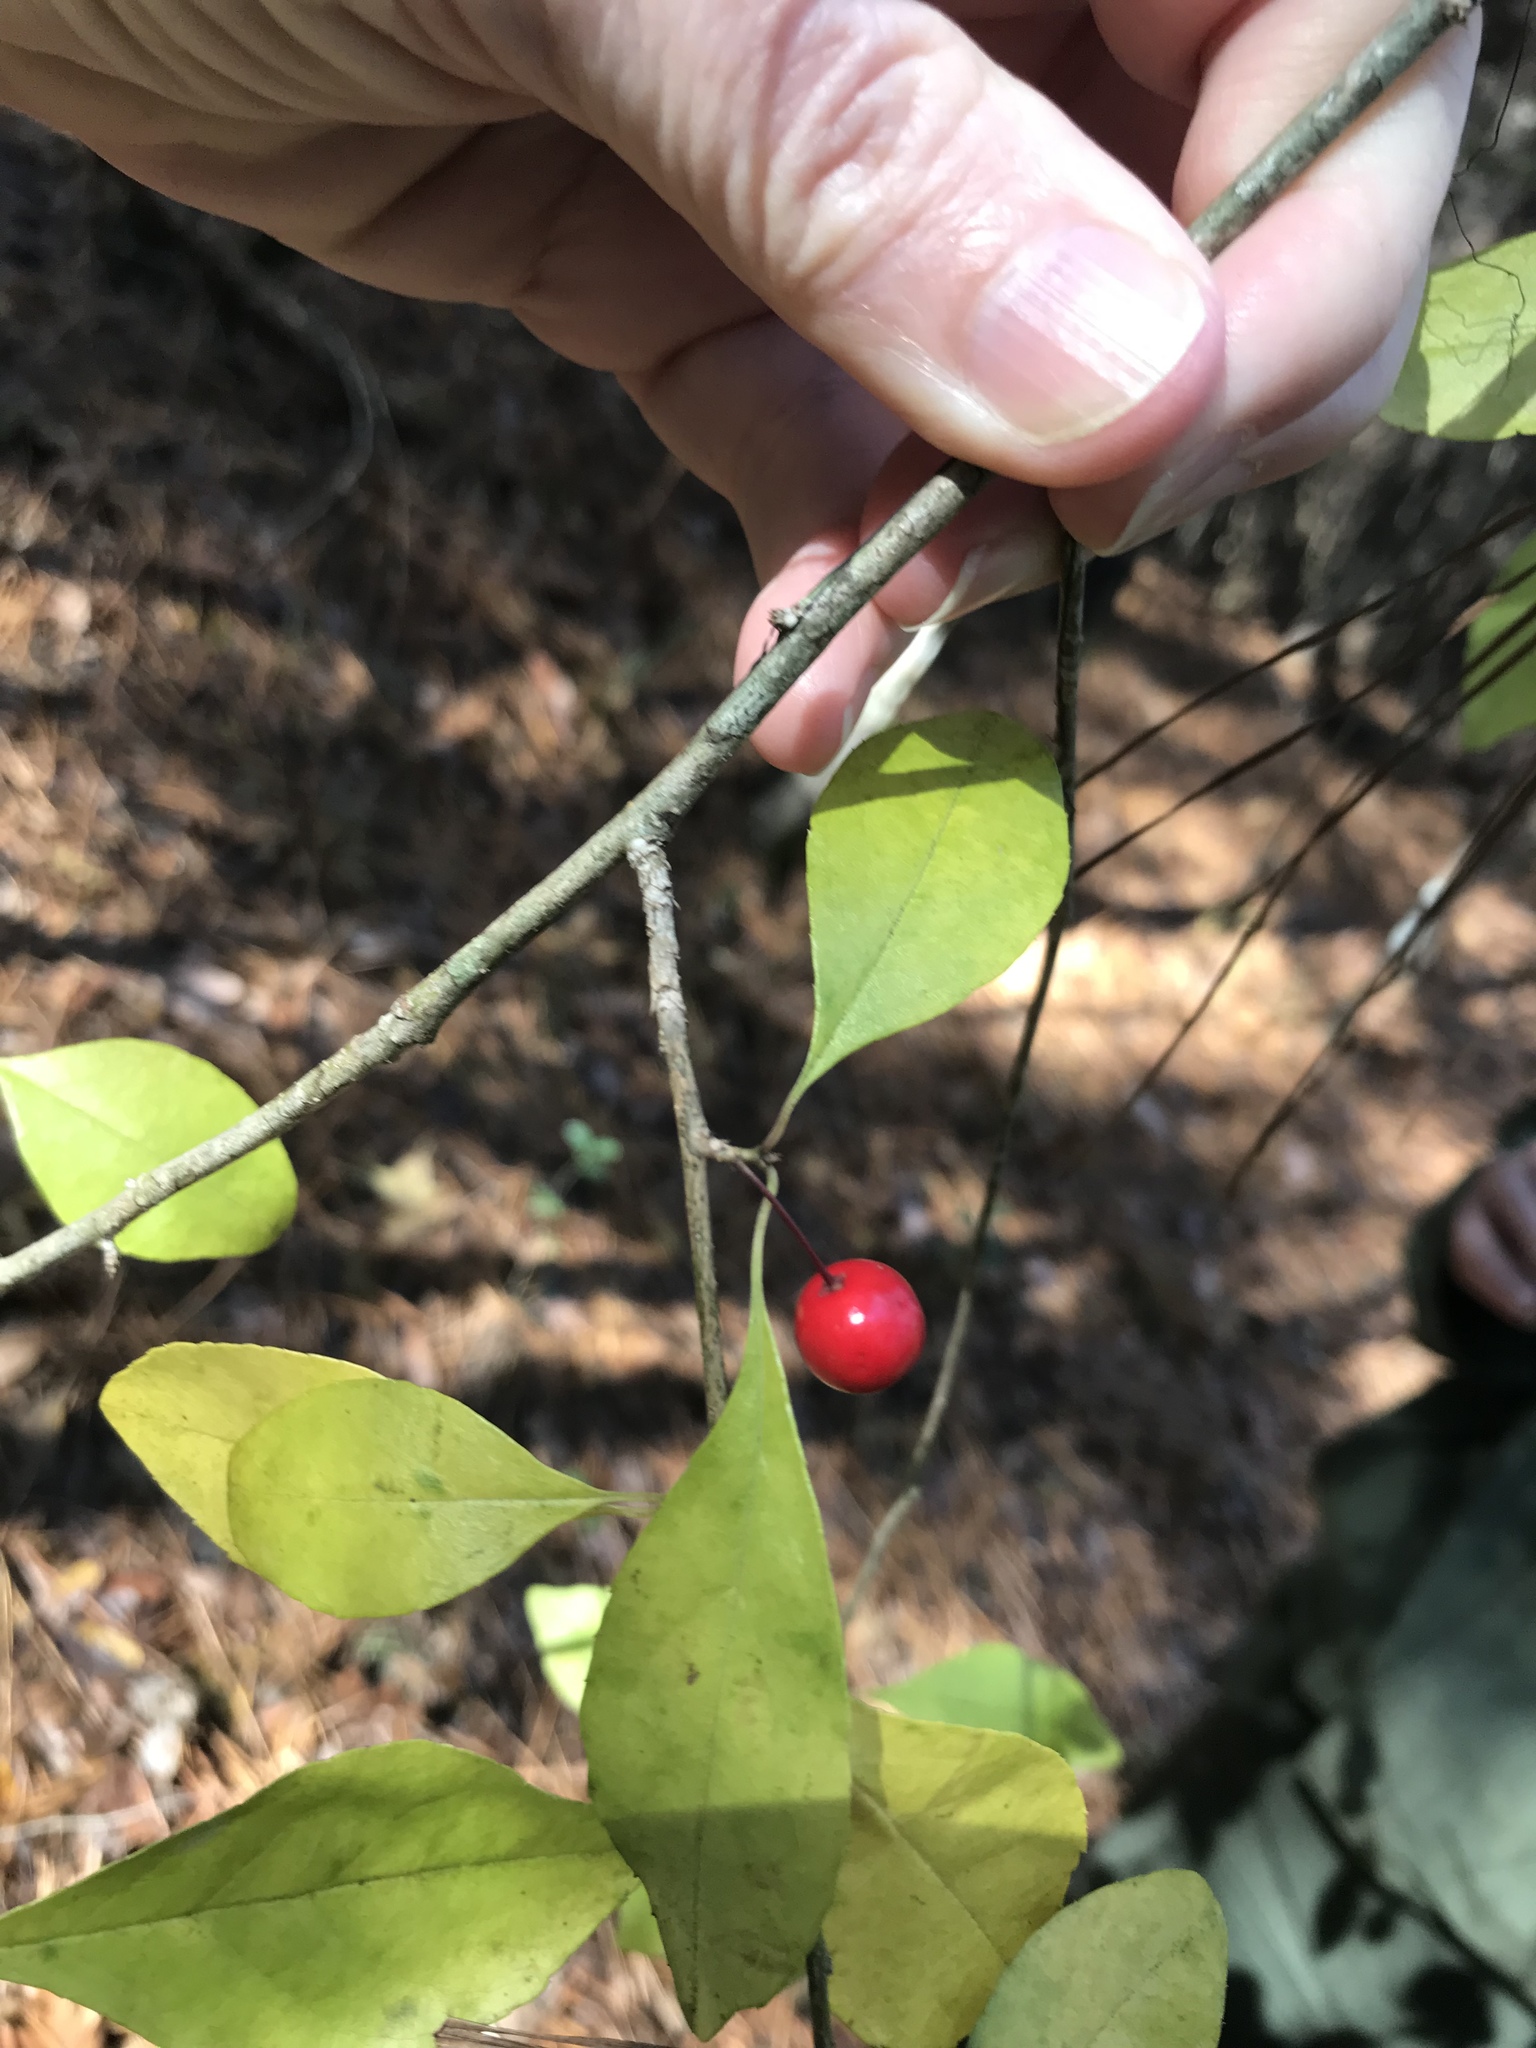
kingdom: Plantae
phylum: Tracheophyta
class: Magnoliopsida
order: Aquifoliales
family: Aquifoliaceae
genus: Ilex
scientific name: Ilex decidua
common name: Possum-haw
